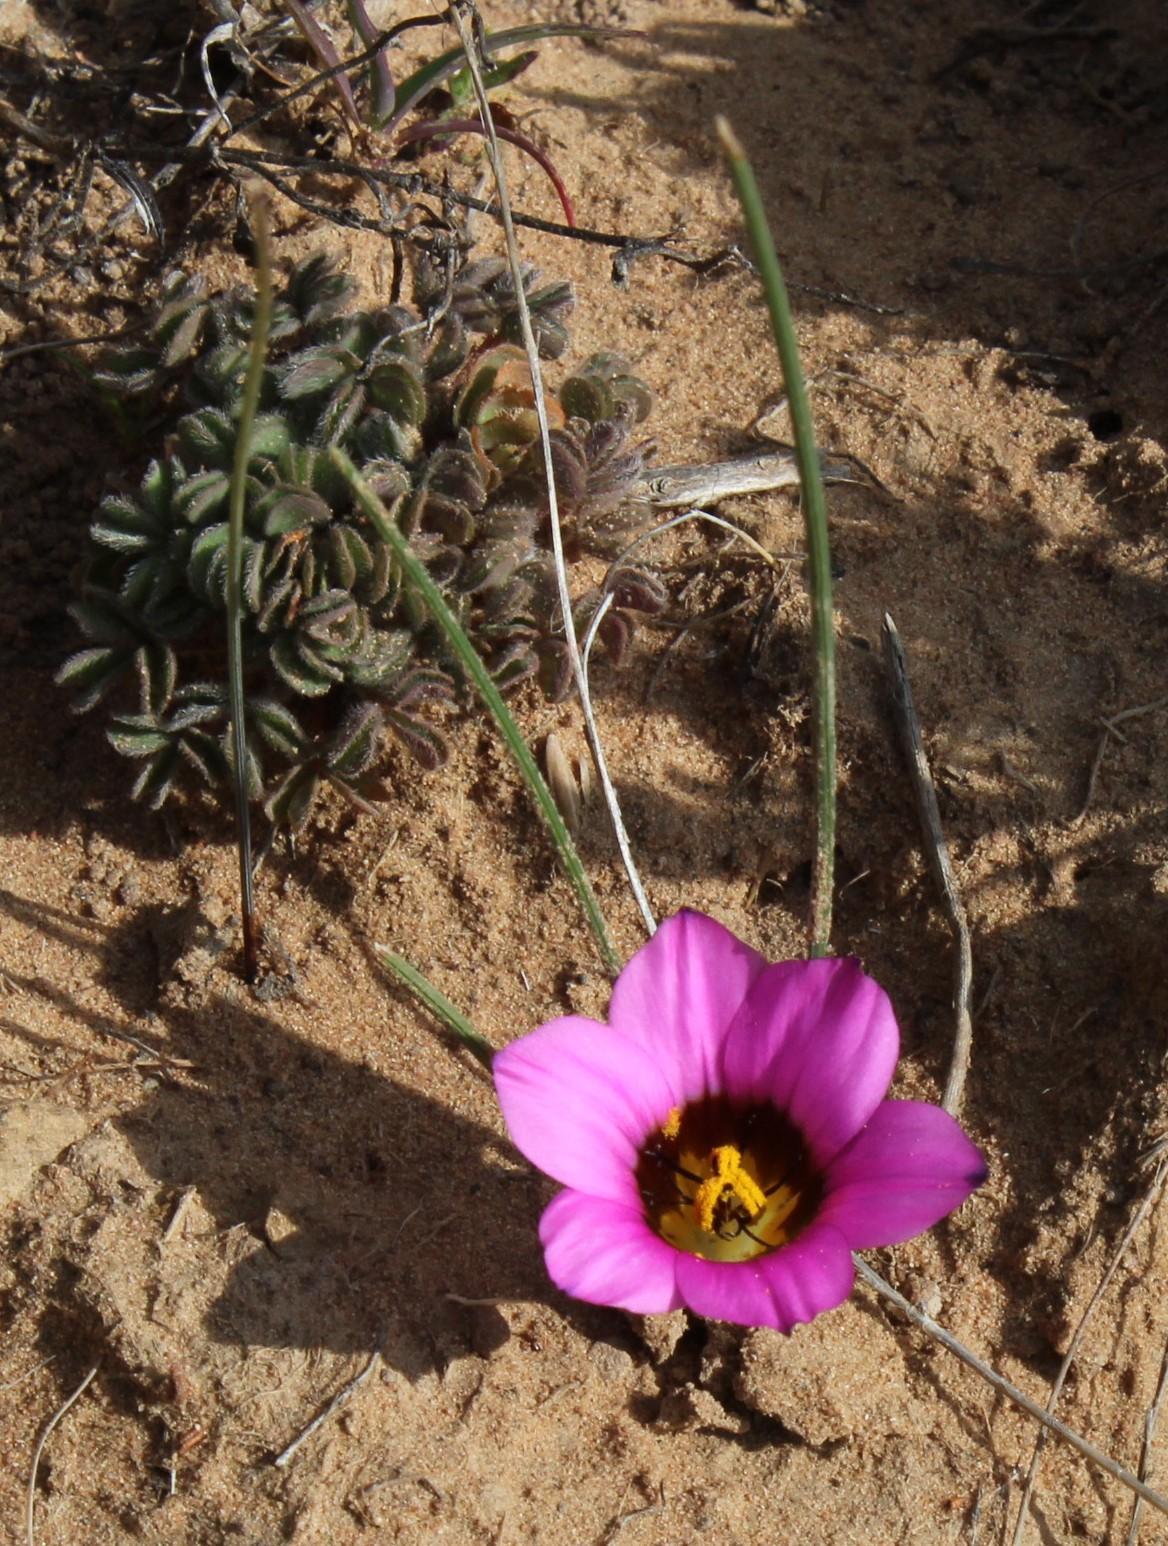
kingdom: Plantae
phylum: Tracheophyta
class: Liliopsida
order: Asparagales
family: Iridaceae
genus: Romulea
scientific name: Romulea atrandra
